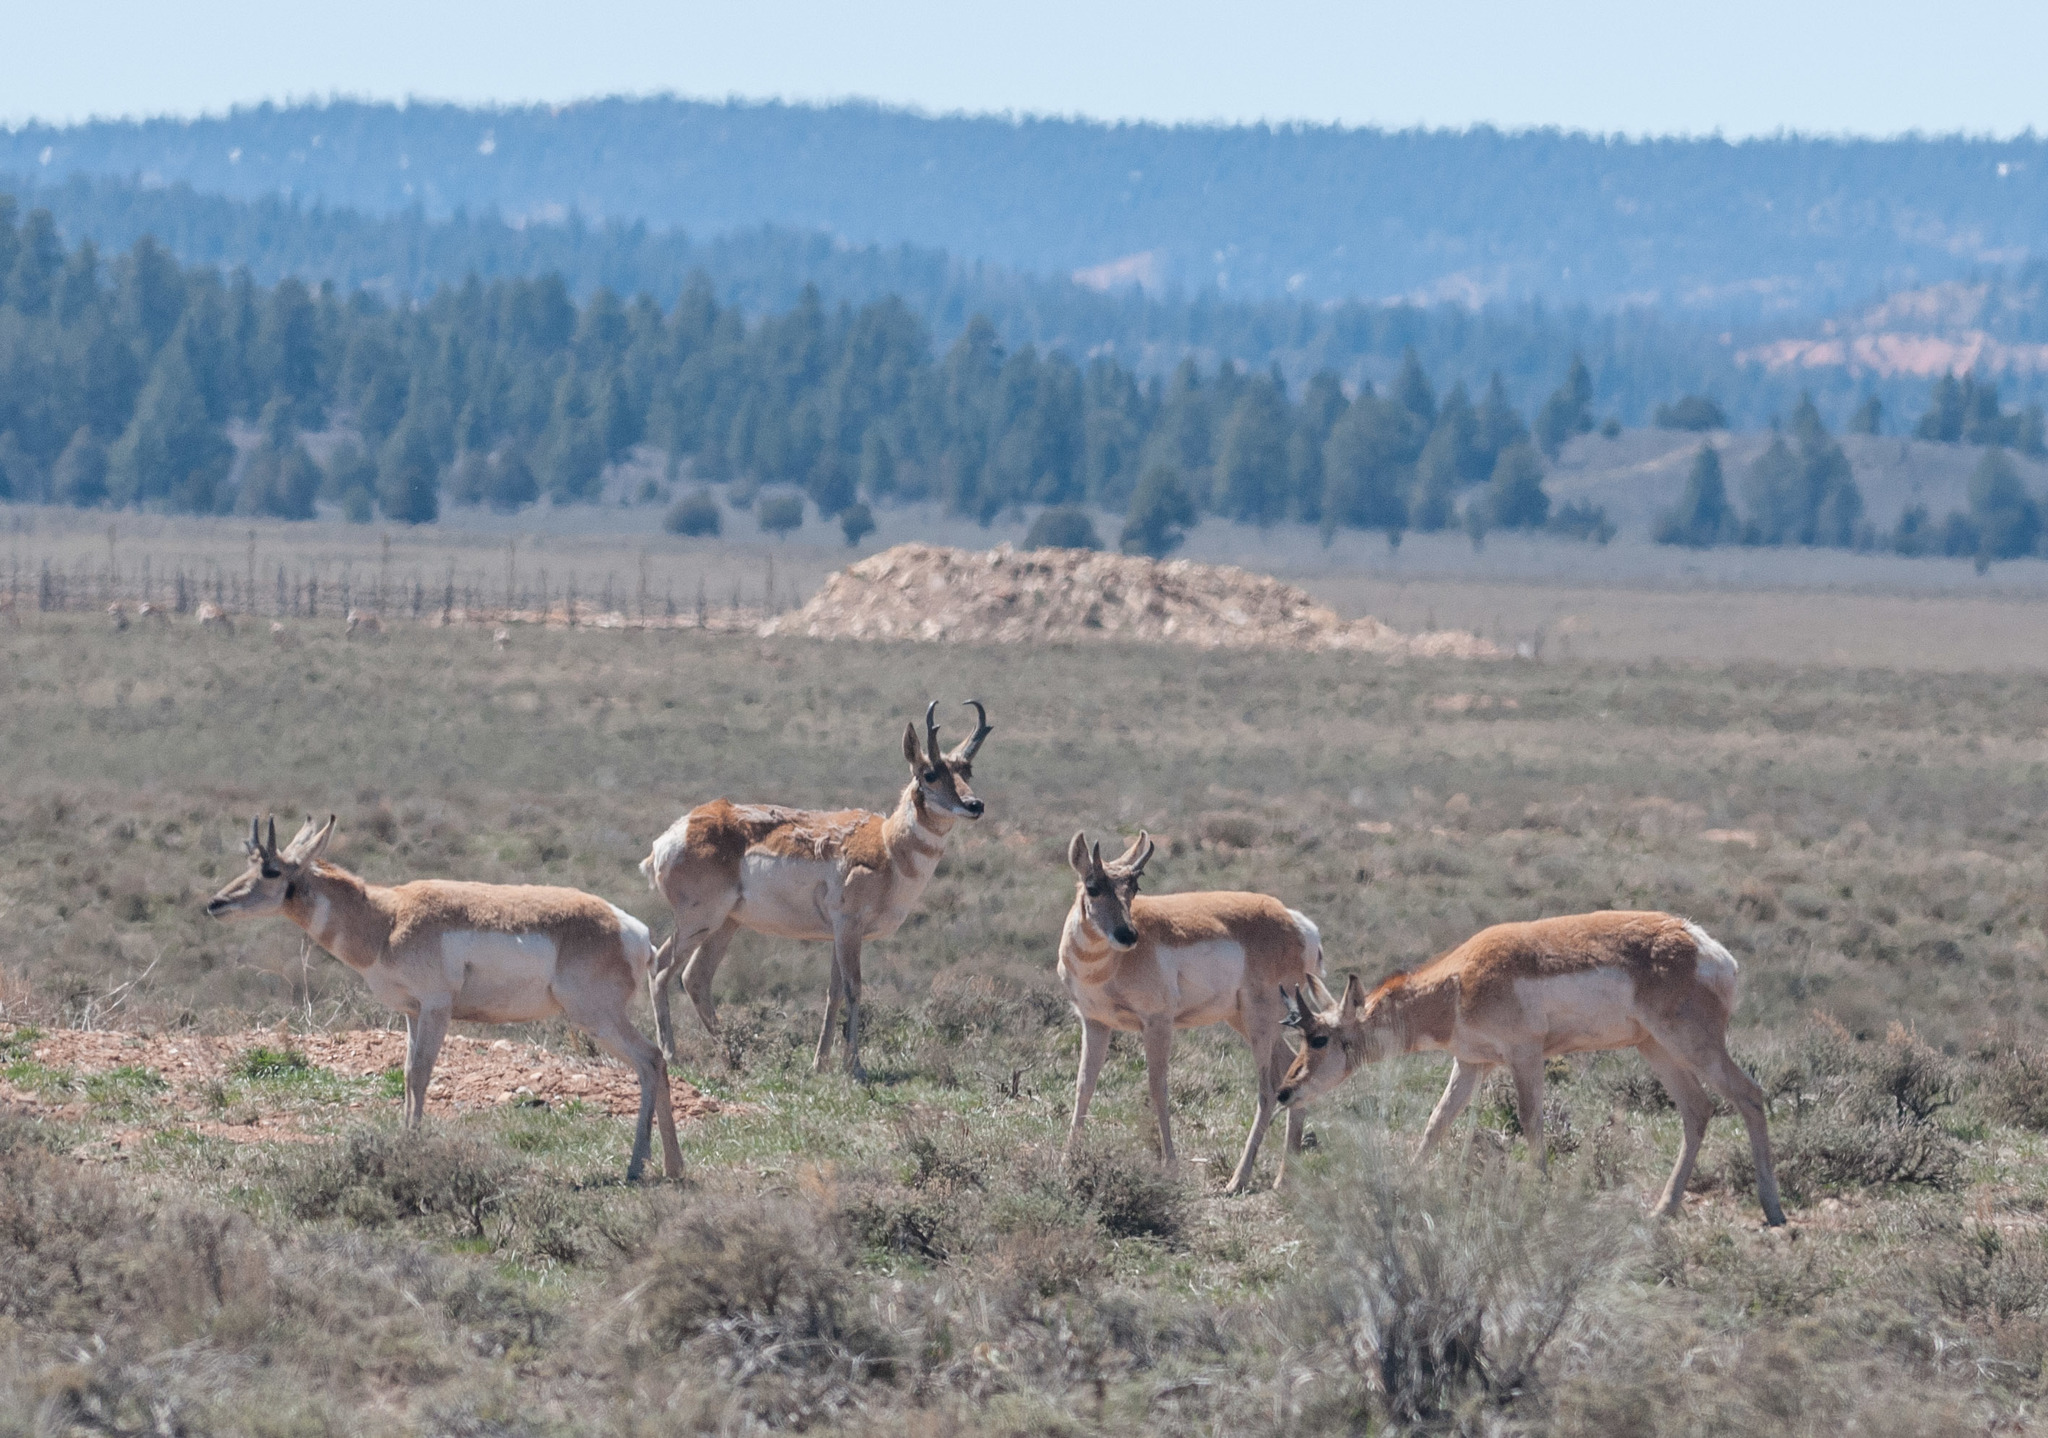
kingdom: Animalia
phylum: Chordata
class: Mammalia
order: Artiodactyla
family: Antilocapridae
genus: Antilocapra
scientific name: Antilocapra americana
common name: Pronghorn
